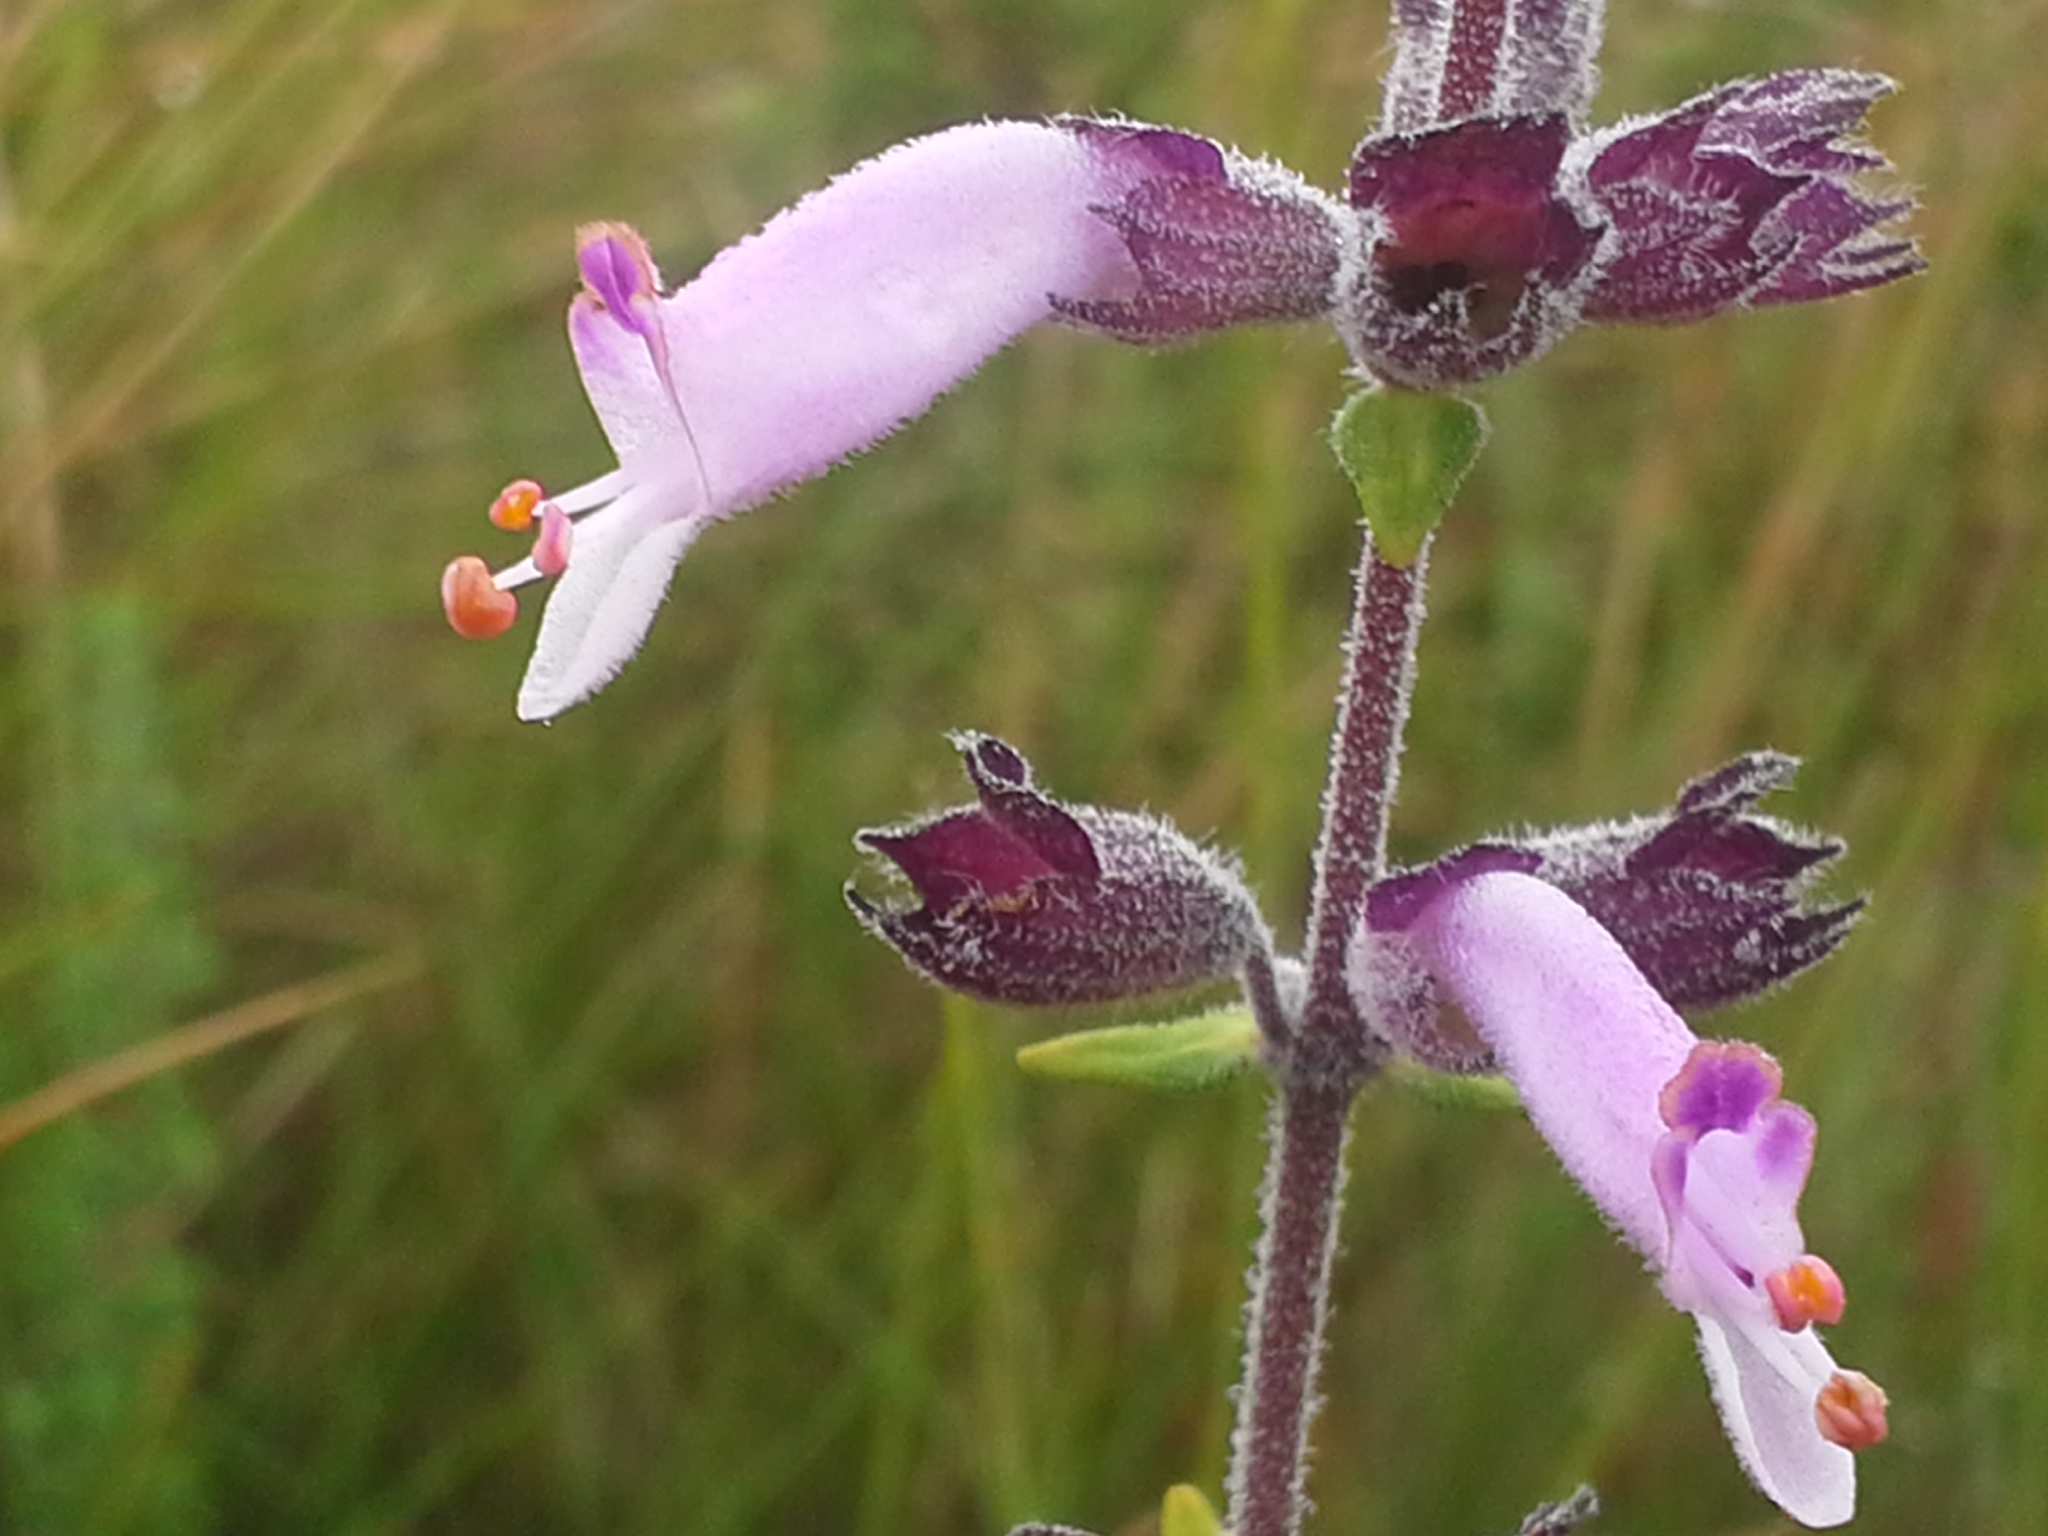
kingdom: Plantae
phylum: Tracheophyta
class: Magnoliopsida
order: Lamiales
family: Lamiaceae
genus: Syncolostemon
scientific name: Syncolostemon
